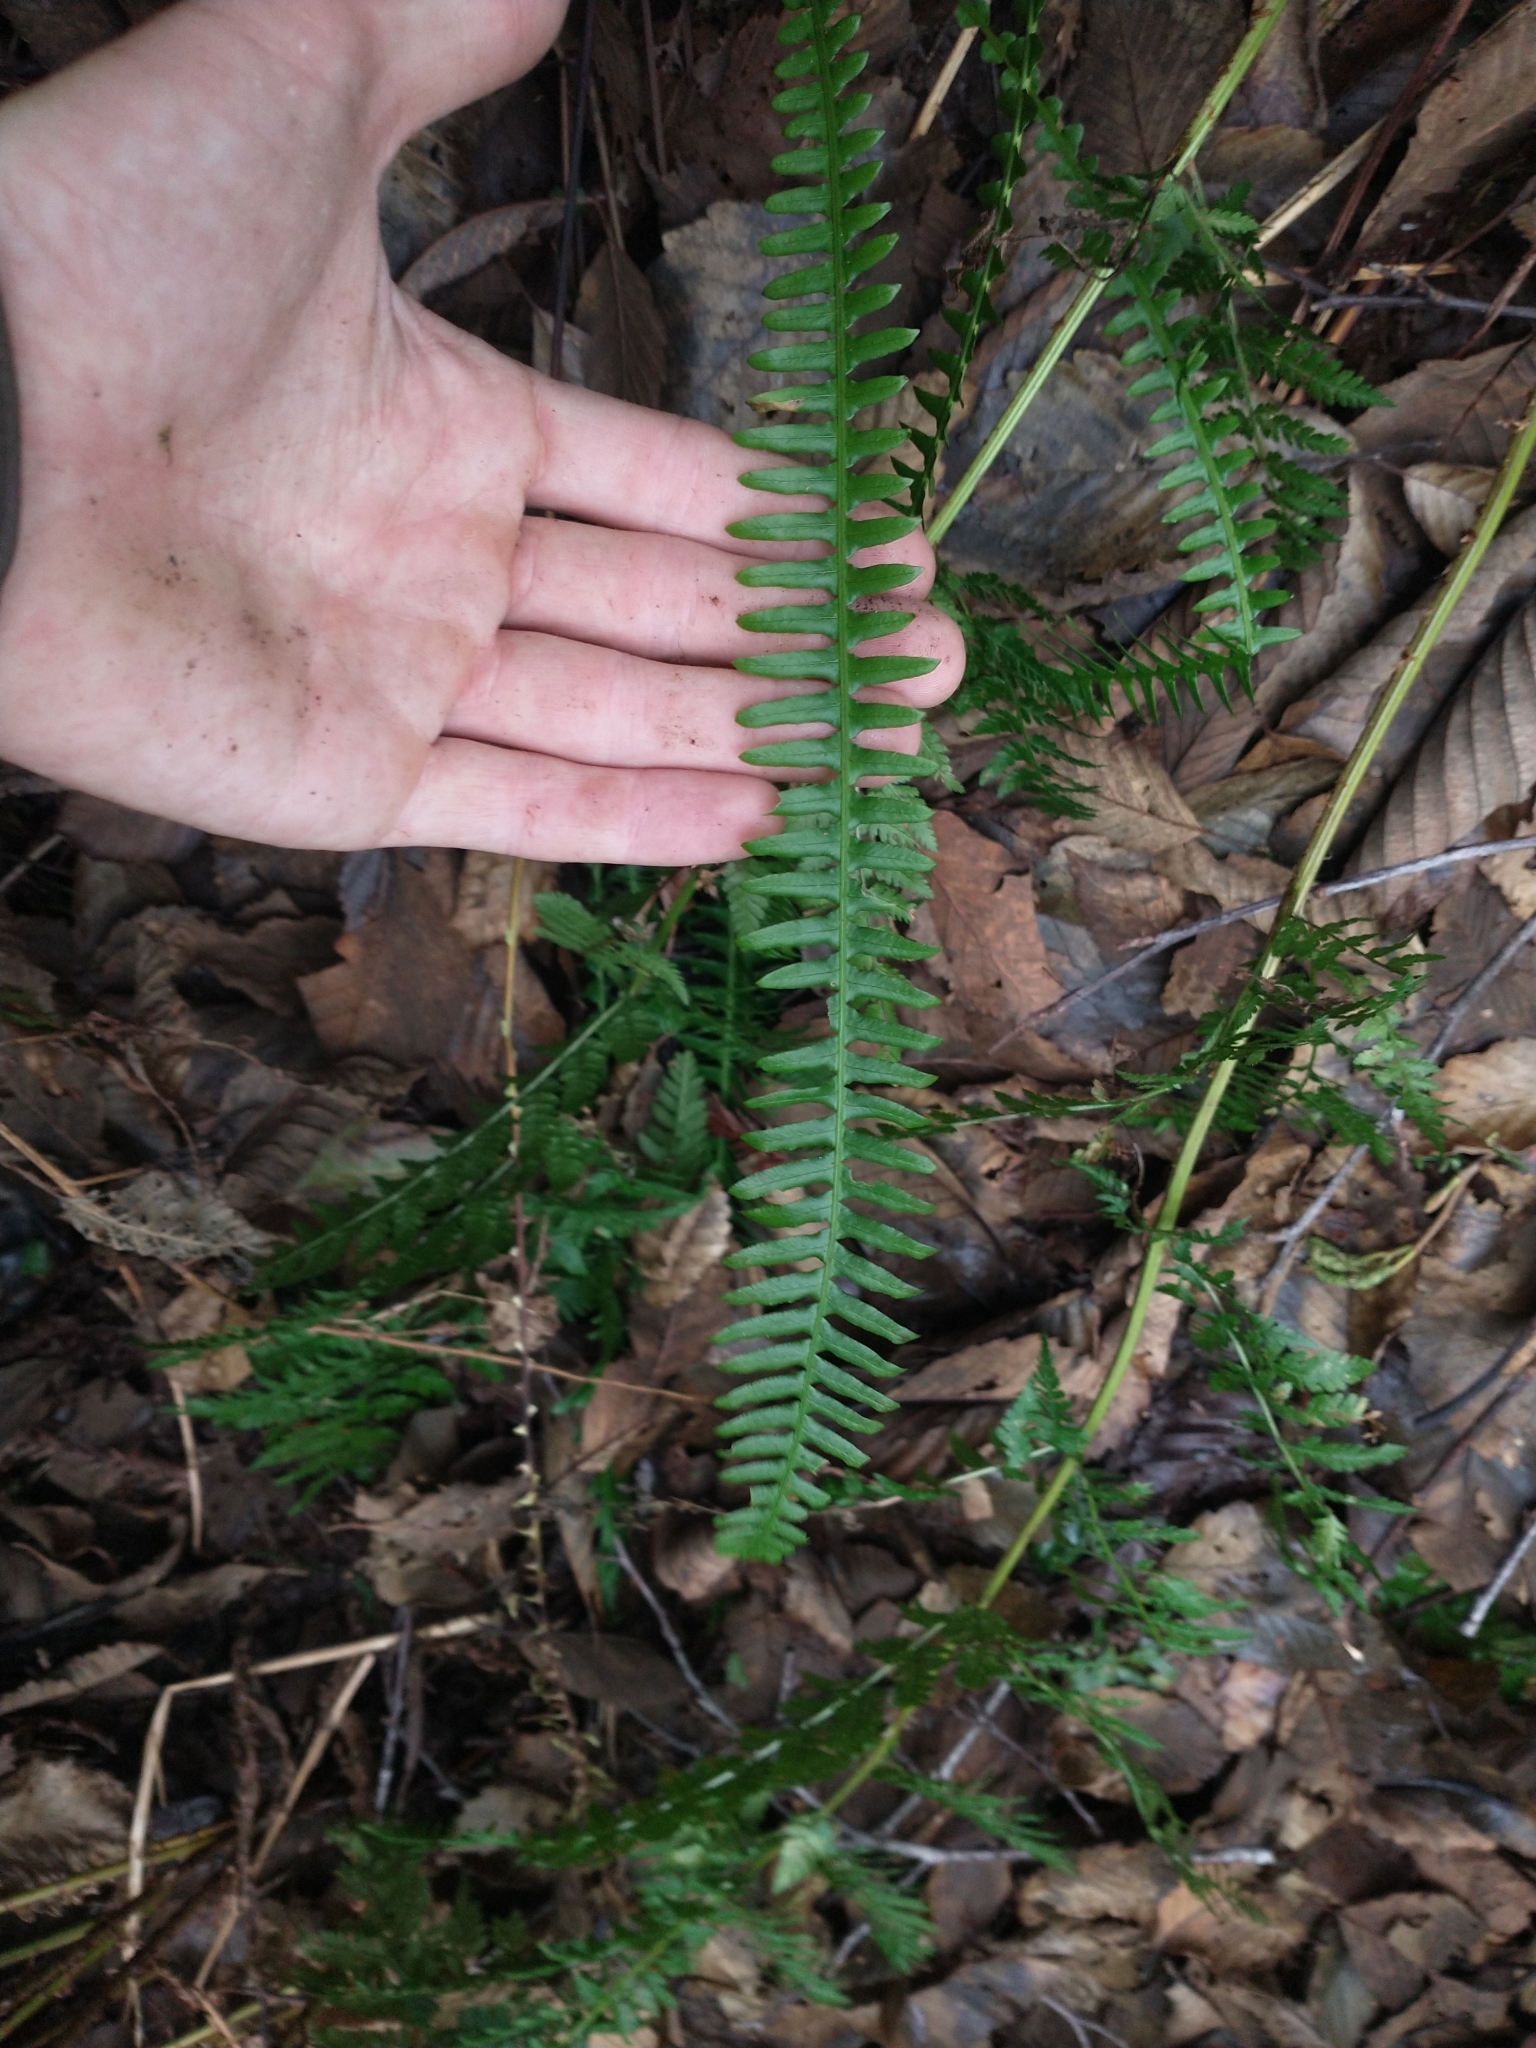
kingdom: Plantae
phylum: Tracheophyta
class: Polypodiopsida
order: Polypodiales
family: Blechnaceae
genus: Struthiopteris
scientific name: Struthiopteris spicant
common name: Deer fern
